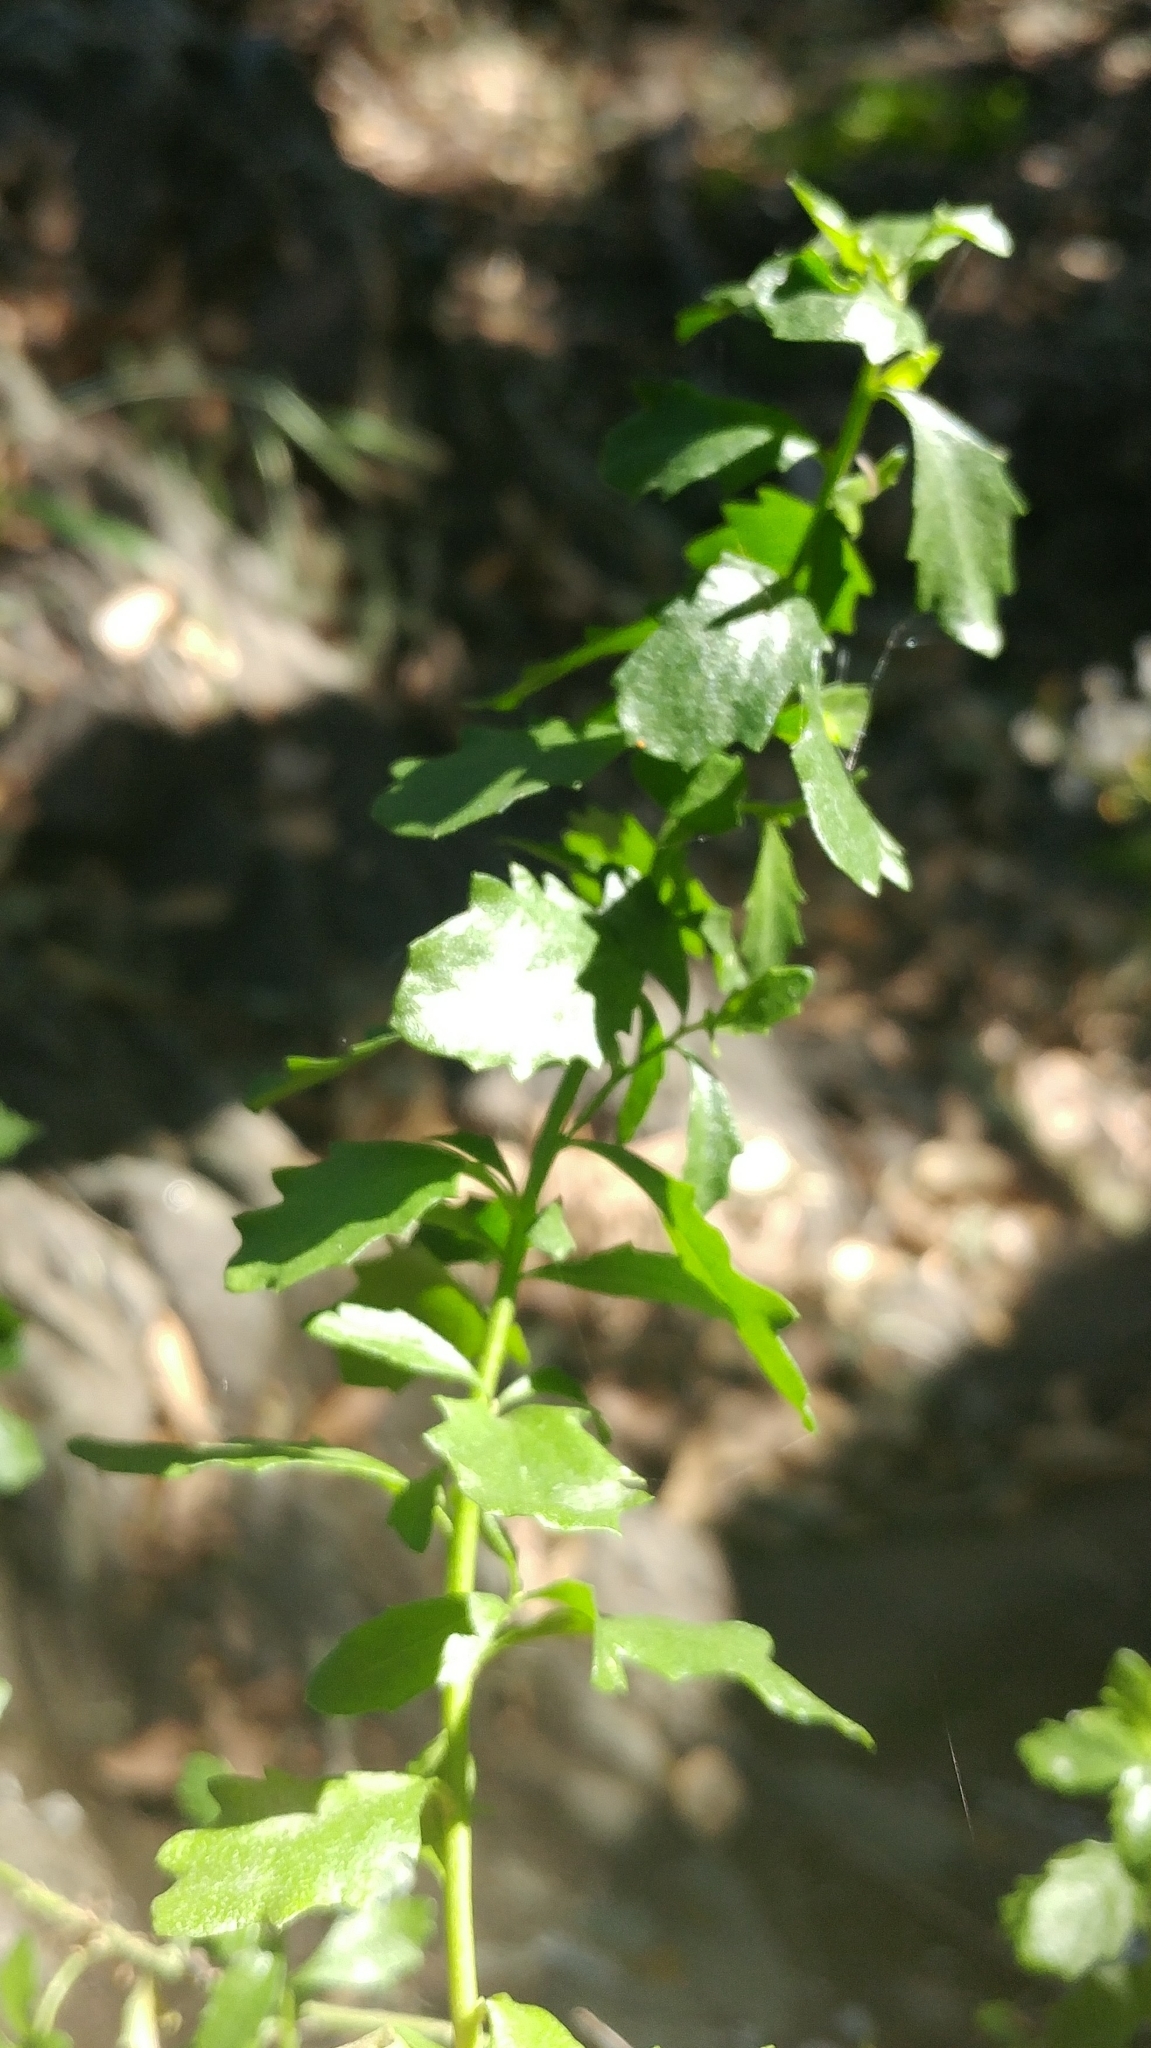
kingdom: Plantae
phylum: Tracheophyta
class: Magnoliopsida
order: Asterales
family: Asteraceae
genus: Baccharis
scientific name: Baccharis pilularis
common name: Coyotebrush
